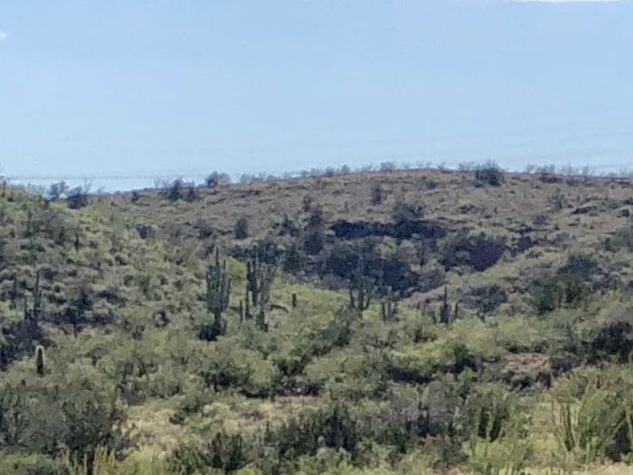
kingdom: Plantae
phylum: Tracheophyta
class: Magnoliopsida
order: Caryophyllales
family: Cactaceae
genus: Carnegiea
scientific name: Carnegiea gigantea
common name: Saguaro
